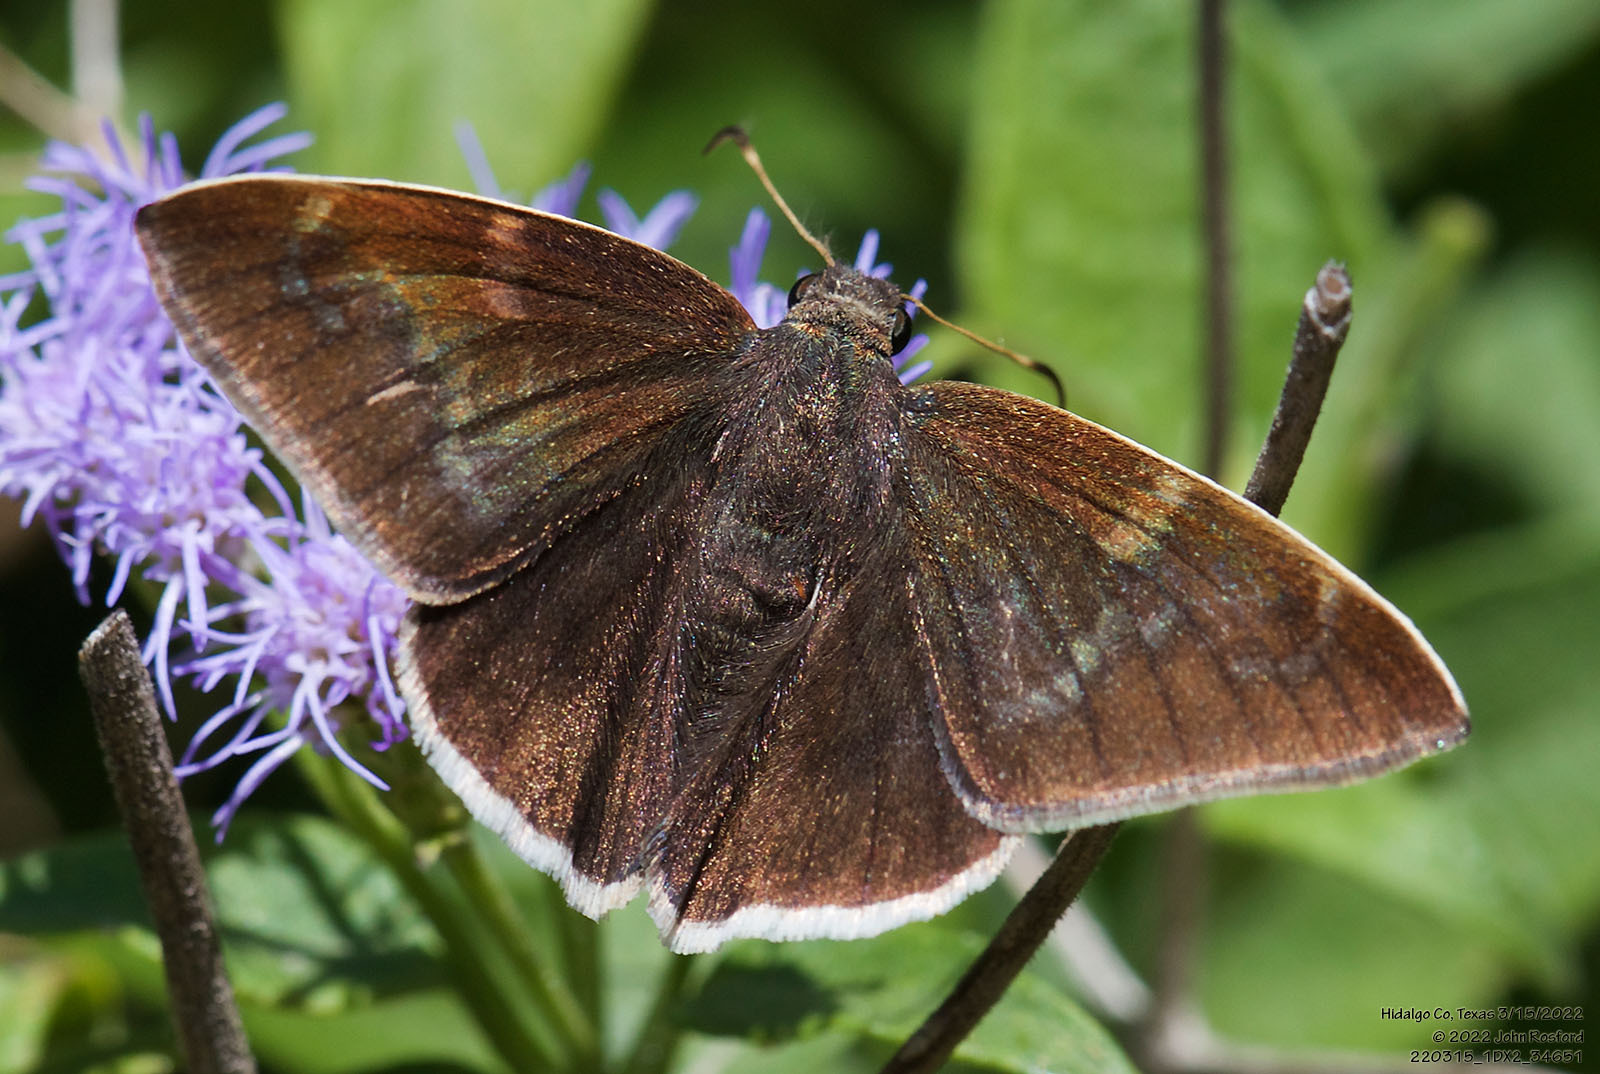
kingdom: Animalia
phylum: Arthropoda
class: Insecta
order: Lepidoptera
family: Hesperiidae
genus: Achalarus
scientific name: Achalarus Murgaria albociliatus
